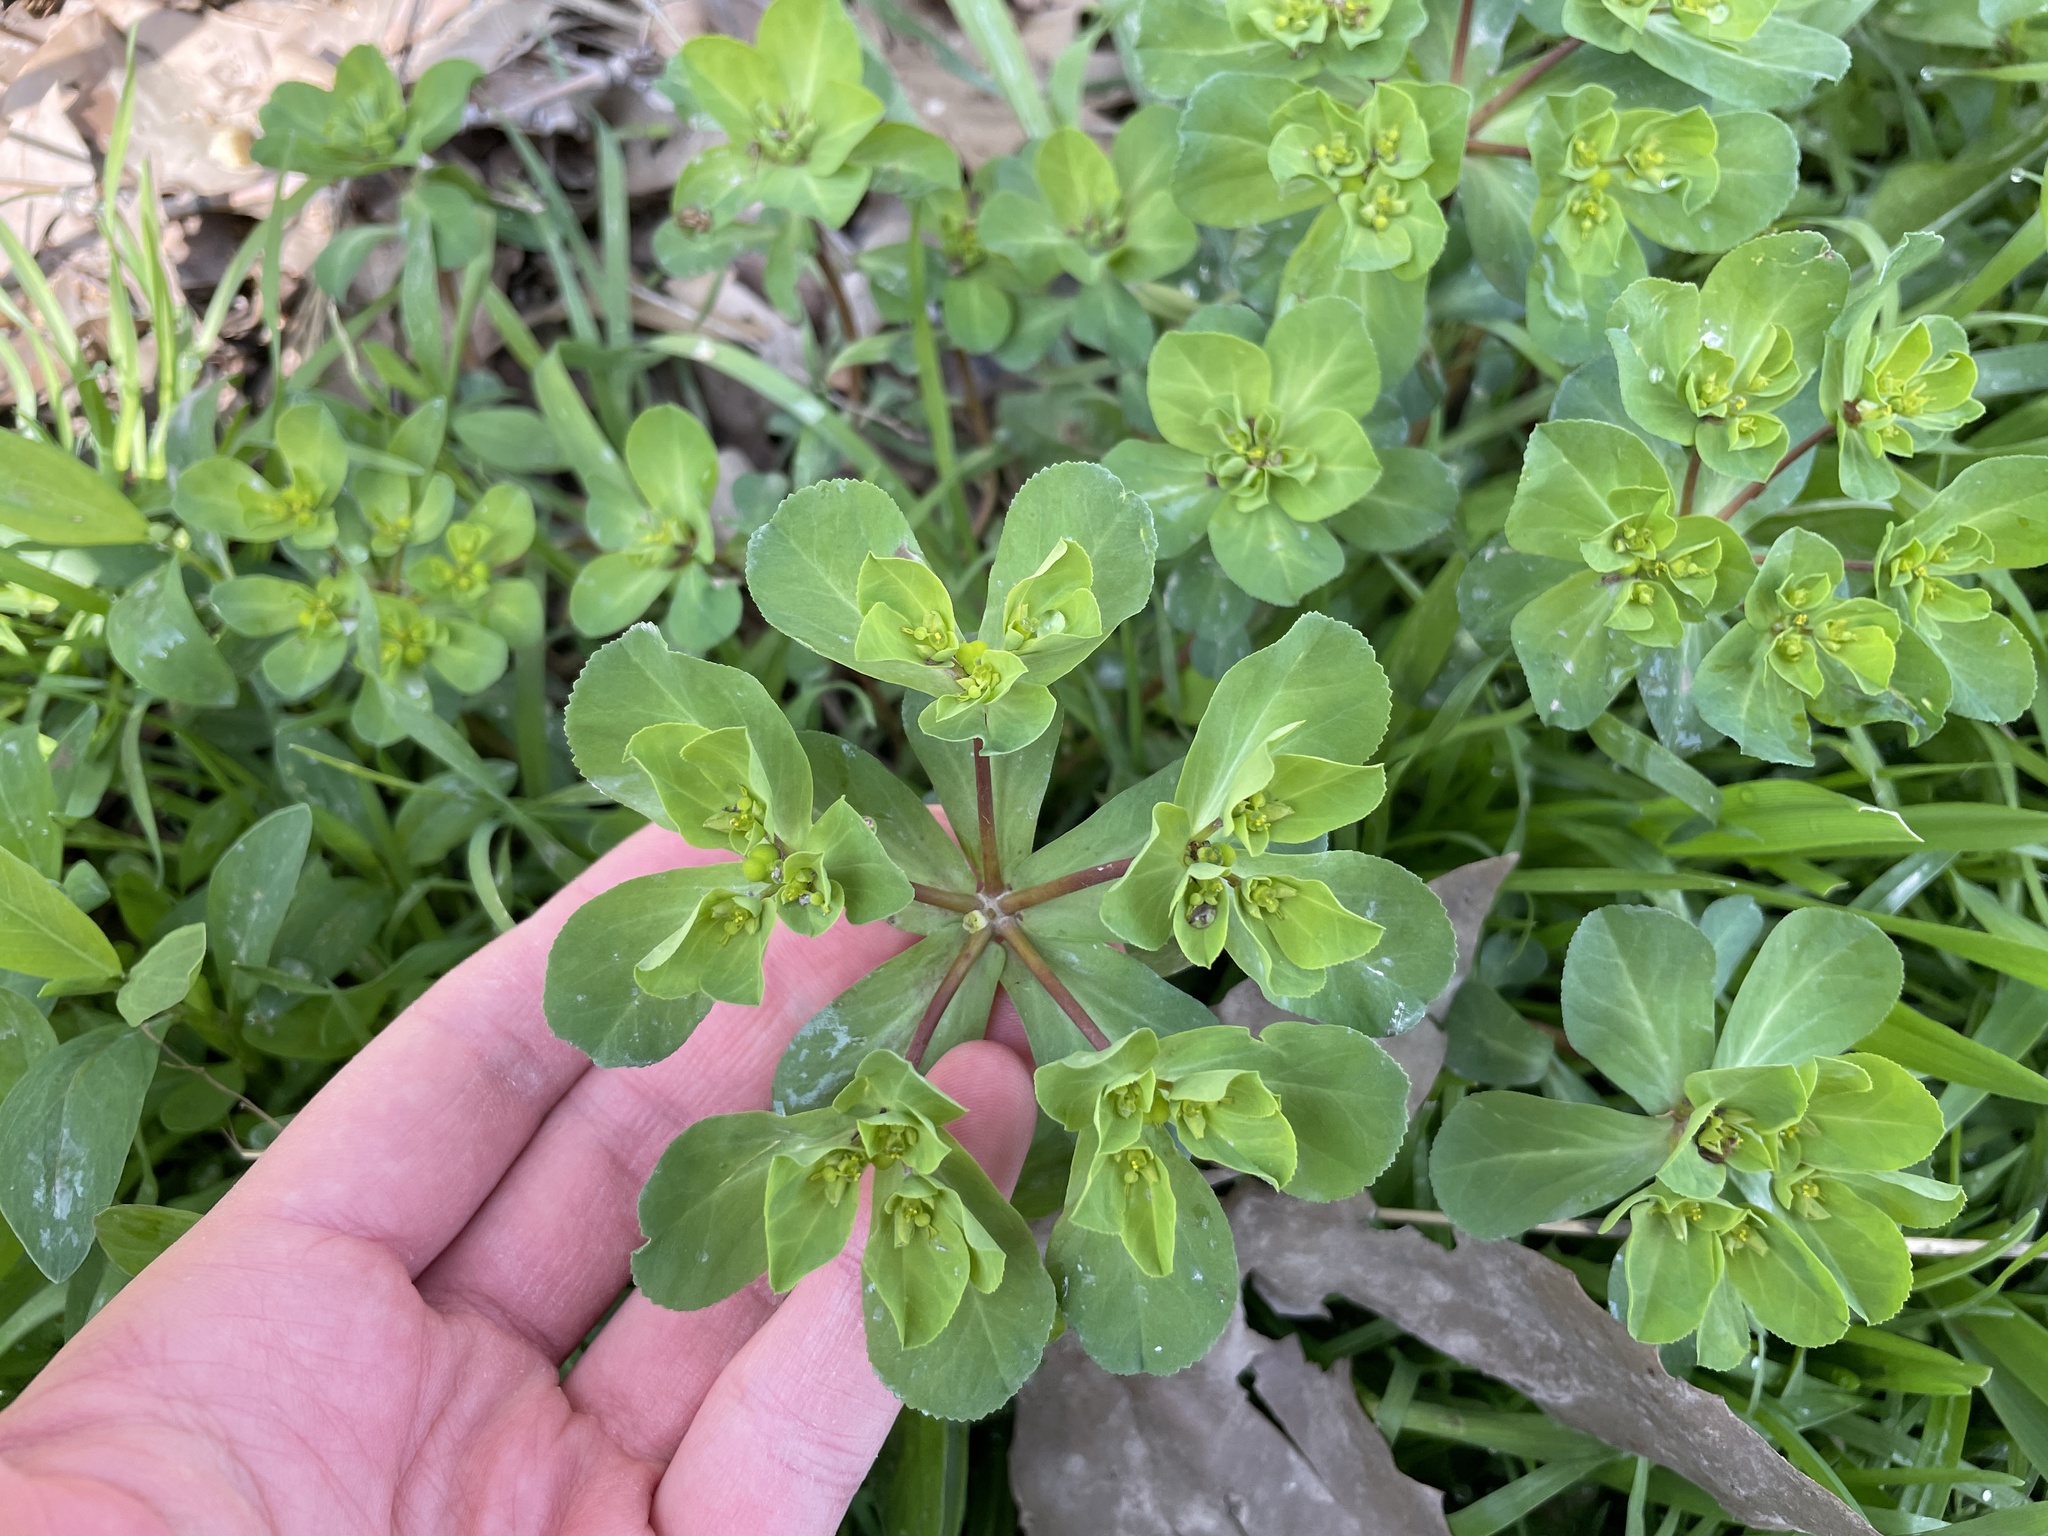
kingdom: Plantae
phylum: Tracheophyta
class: Magnoliopsida
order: Malpighiales
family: Euphorbiaceae
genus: Euphorbia
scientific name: Euphorbia helioscopia
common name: Sun spurge
